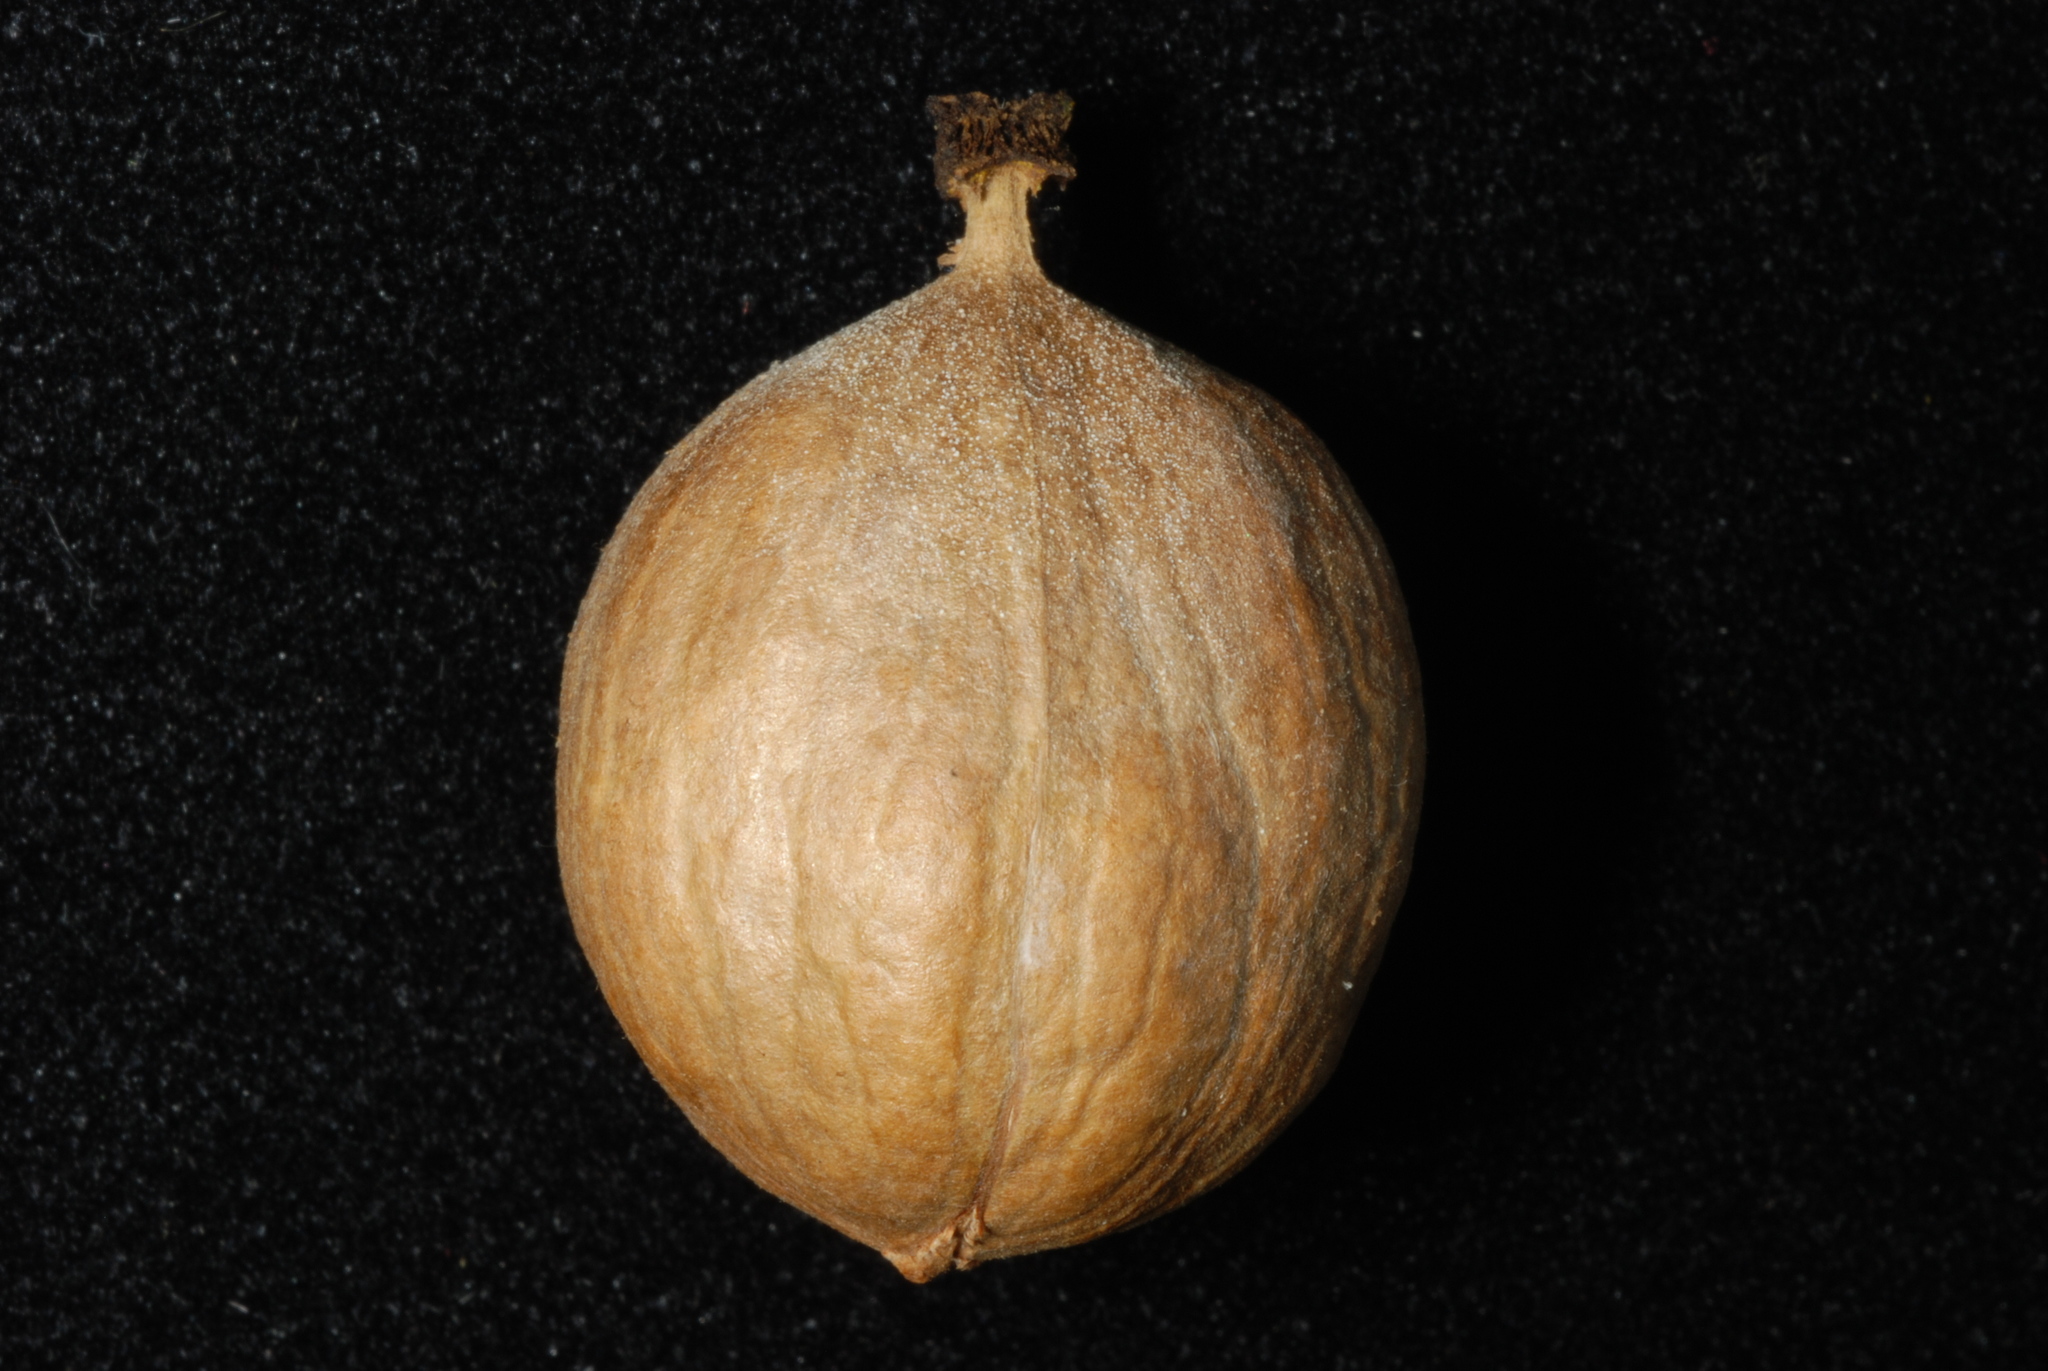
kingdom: Plantae
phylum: Tracheophyta
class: Magnoliopsida
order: Fagales
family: Juglandaceae
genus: Carya
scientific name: Carya ovalis
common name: False shagbark
